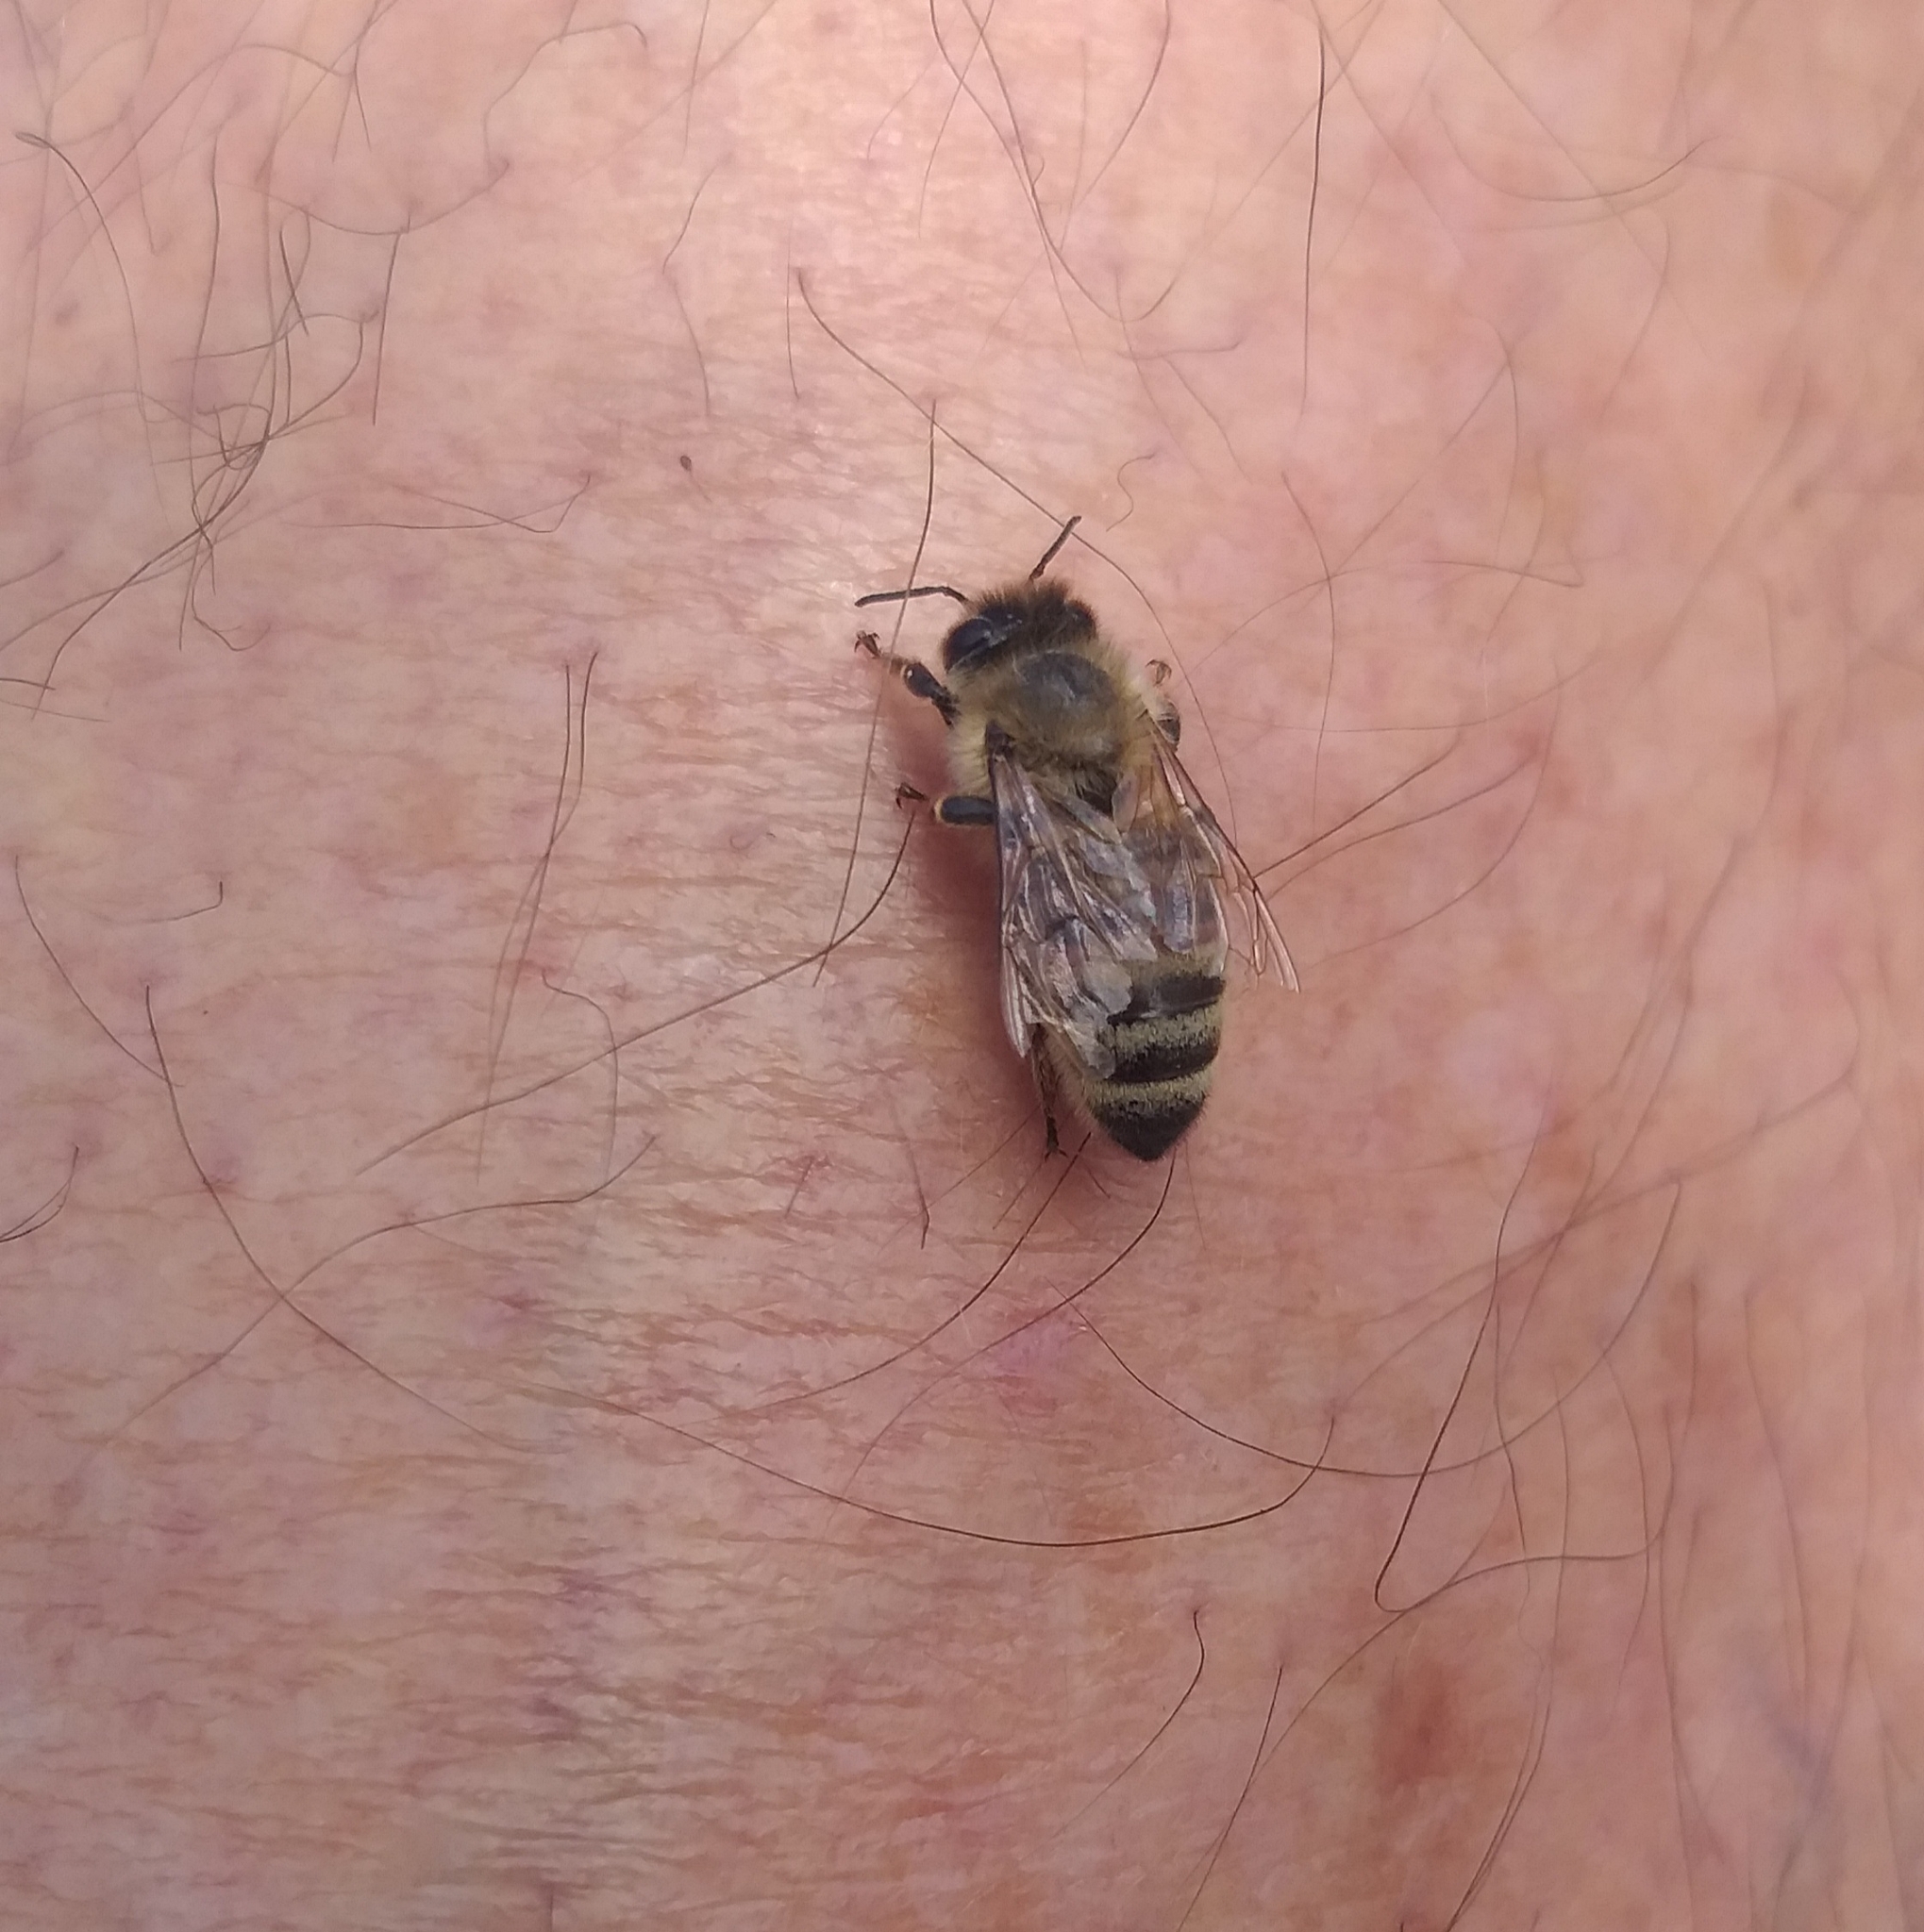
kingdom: Animalia
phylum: Arthropoda
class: Insecta
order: Hymenoptera
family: Apidae
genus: Apis
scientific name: Apis mellifera
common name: Honey bee
